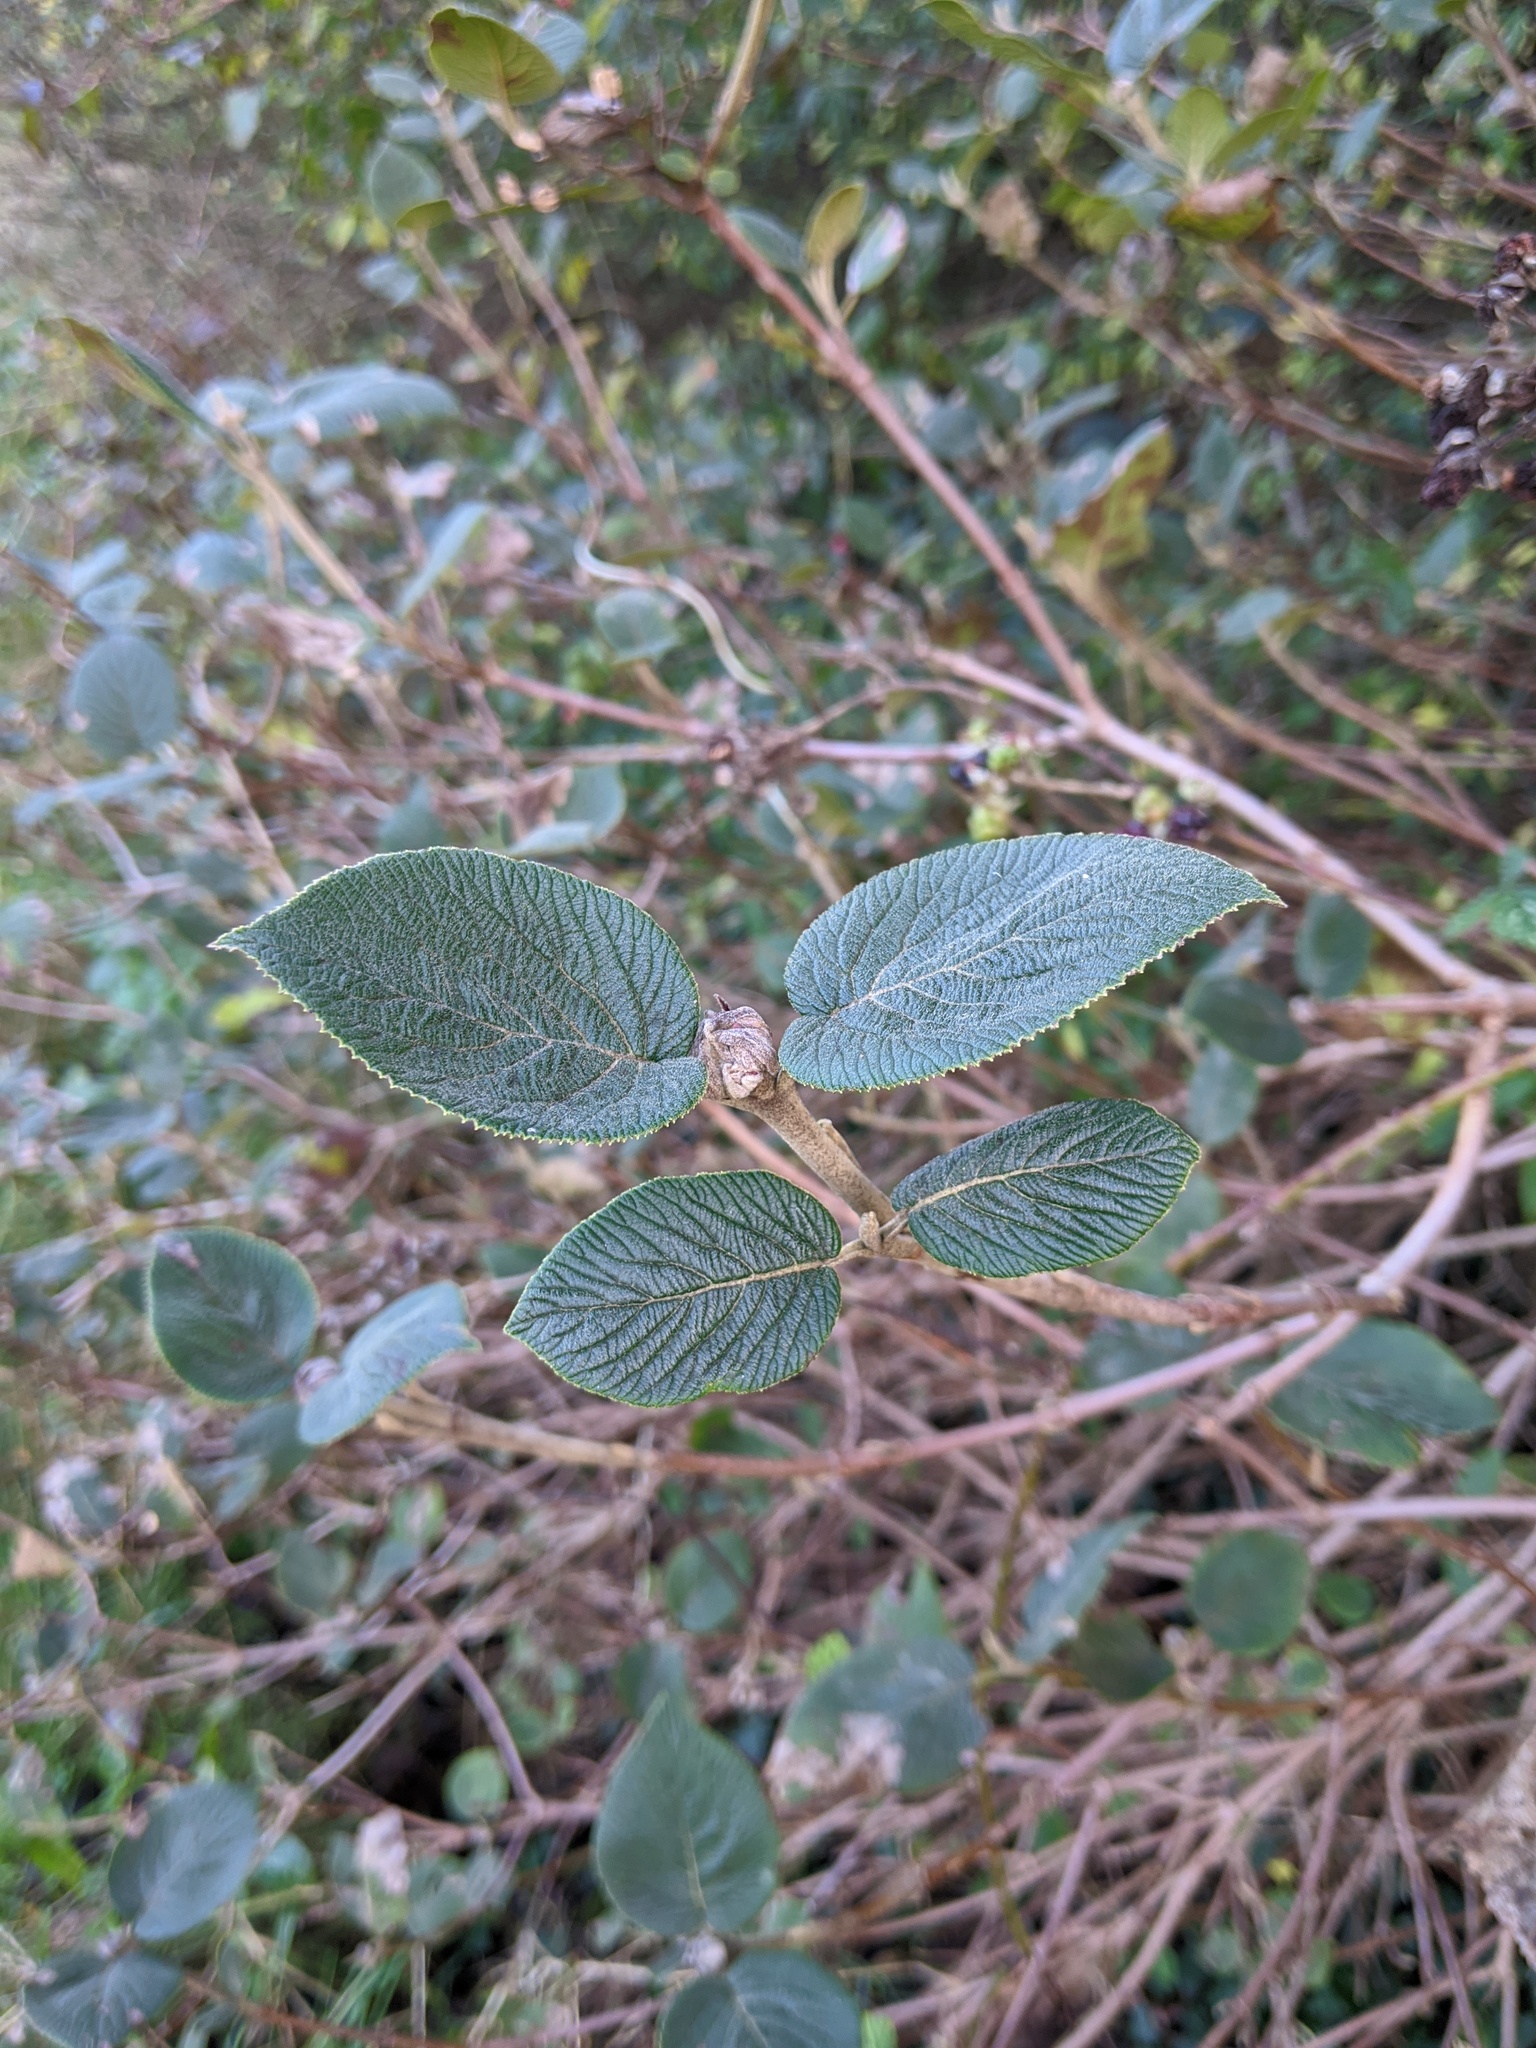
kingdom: Plantae
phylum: Tracheophyta
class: Magnoliopsida
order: Dipsacales
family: Viburnaceae
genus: Viburnum
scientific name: Viburnum lantana
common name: Wayfaring tree
